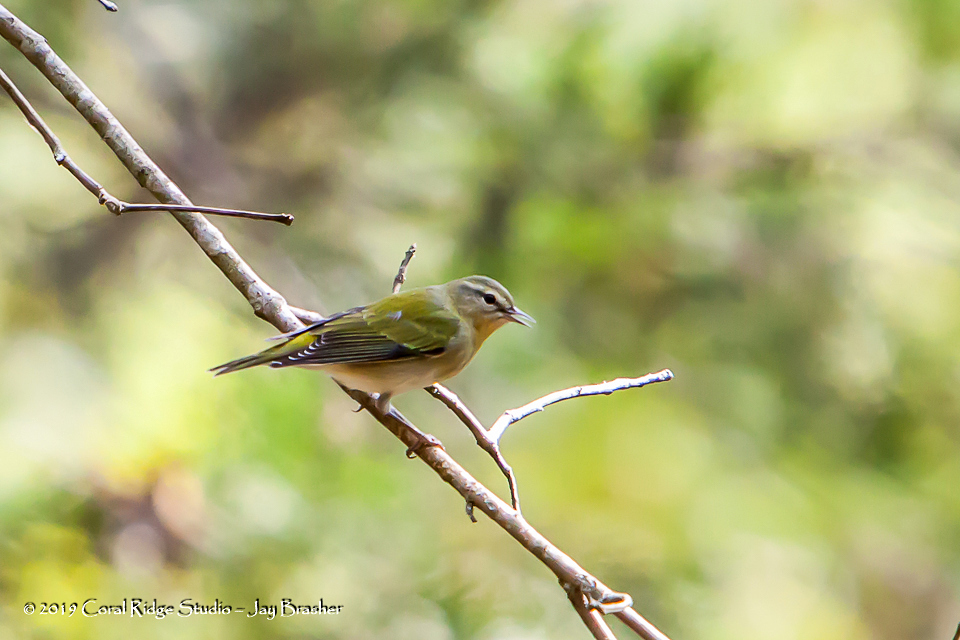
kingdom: Animalia
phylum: Chordata
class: Aves
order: Passeriformes
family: Parulidae
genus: Leiothlypis
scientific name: Leiothlypis peregrina
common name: Tennessee warbler
